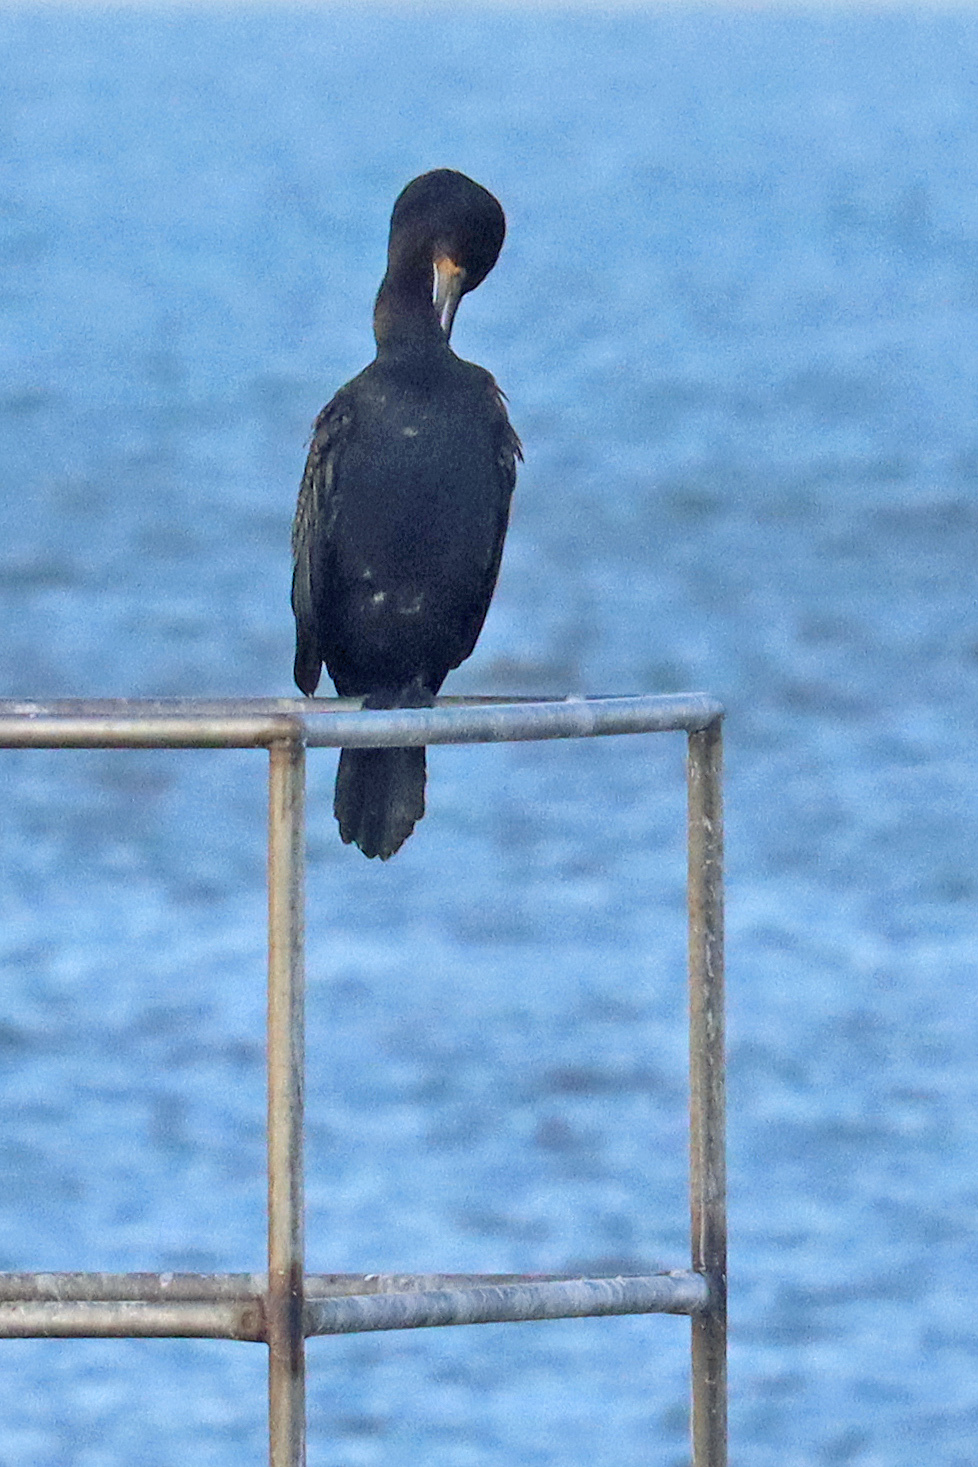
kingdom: Animalia
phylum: Chordata
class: Aves
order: Suliformes
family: Phalacrocoracidae
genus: Phalacrocorax
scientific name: Phalacrocorax carbo
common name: Great cormorant
